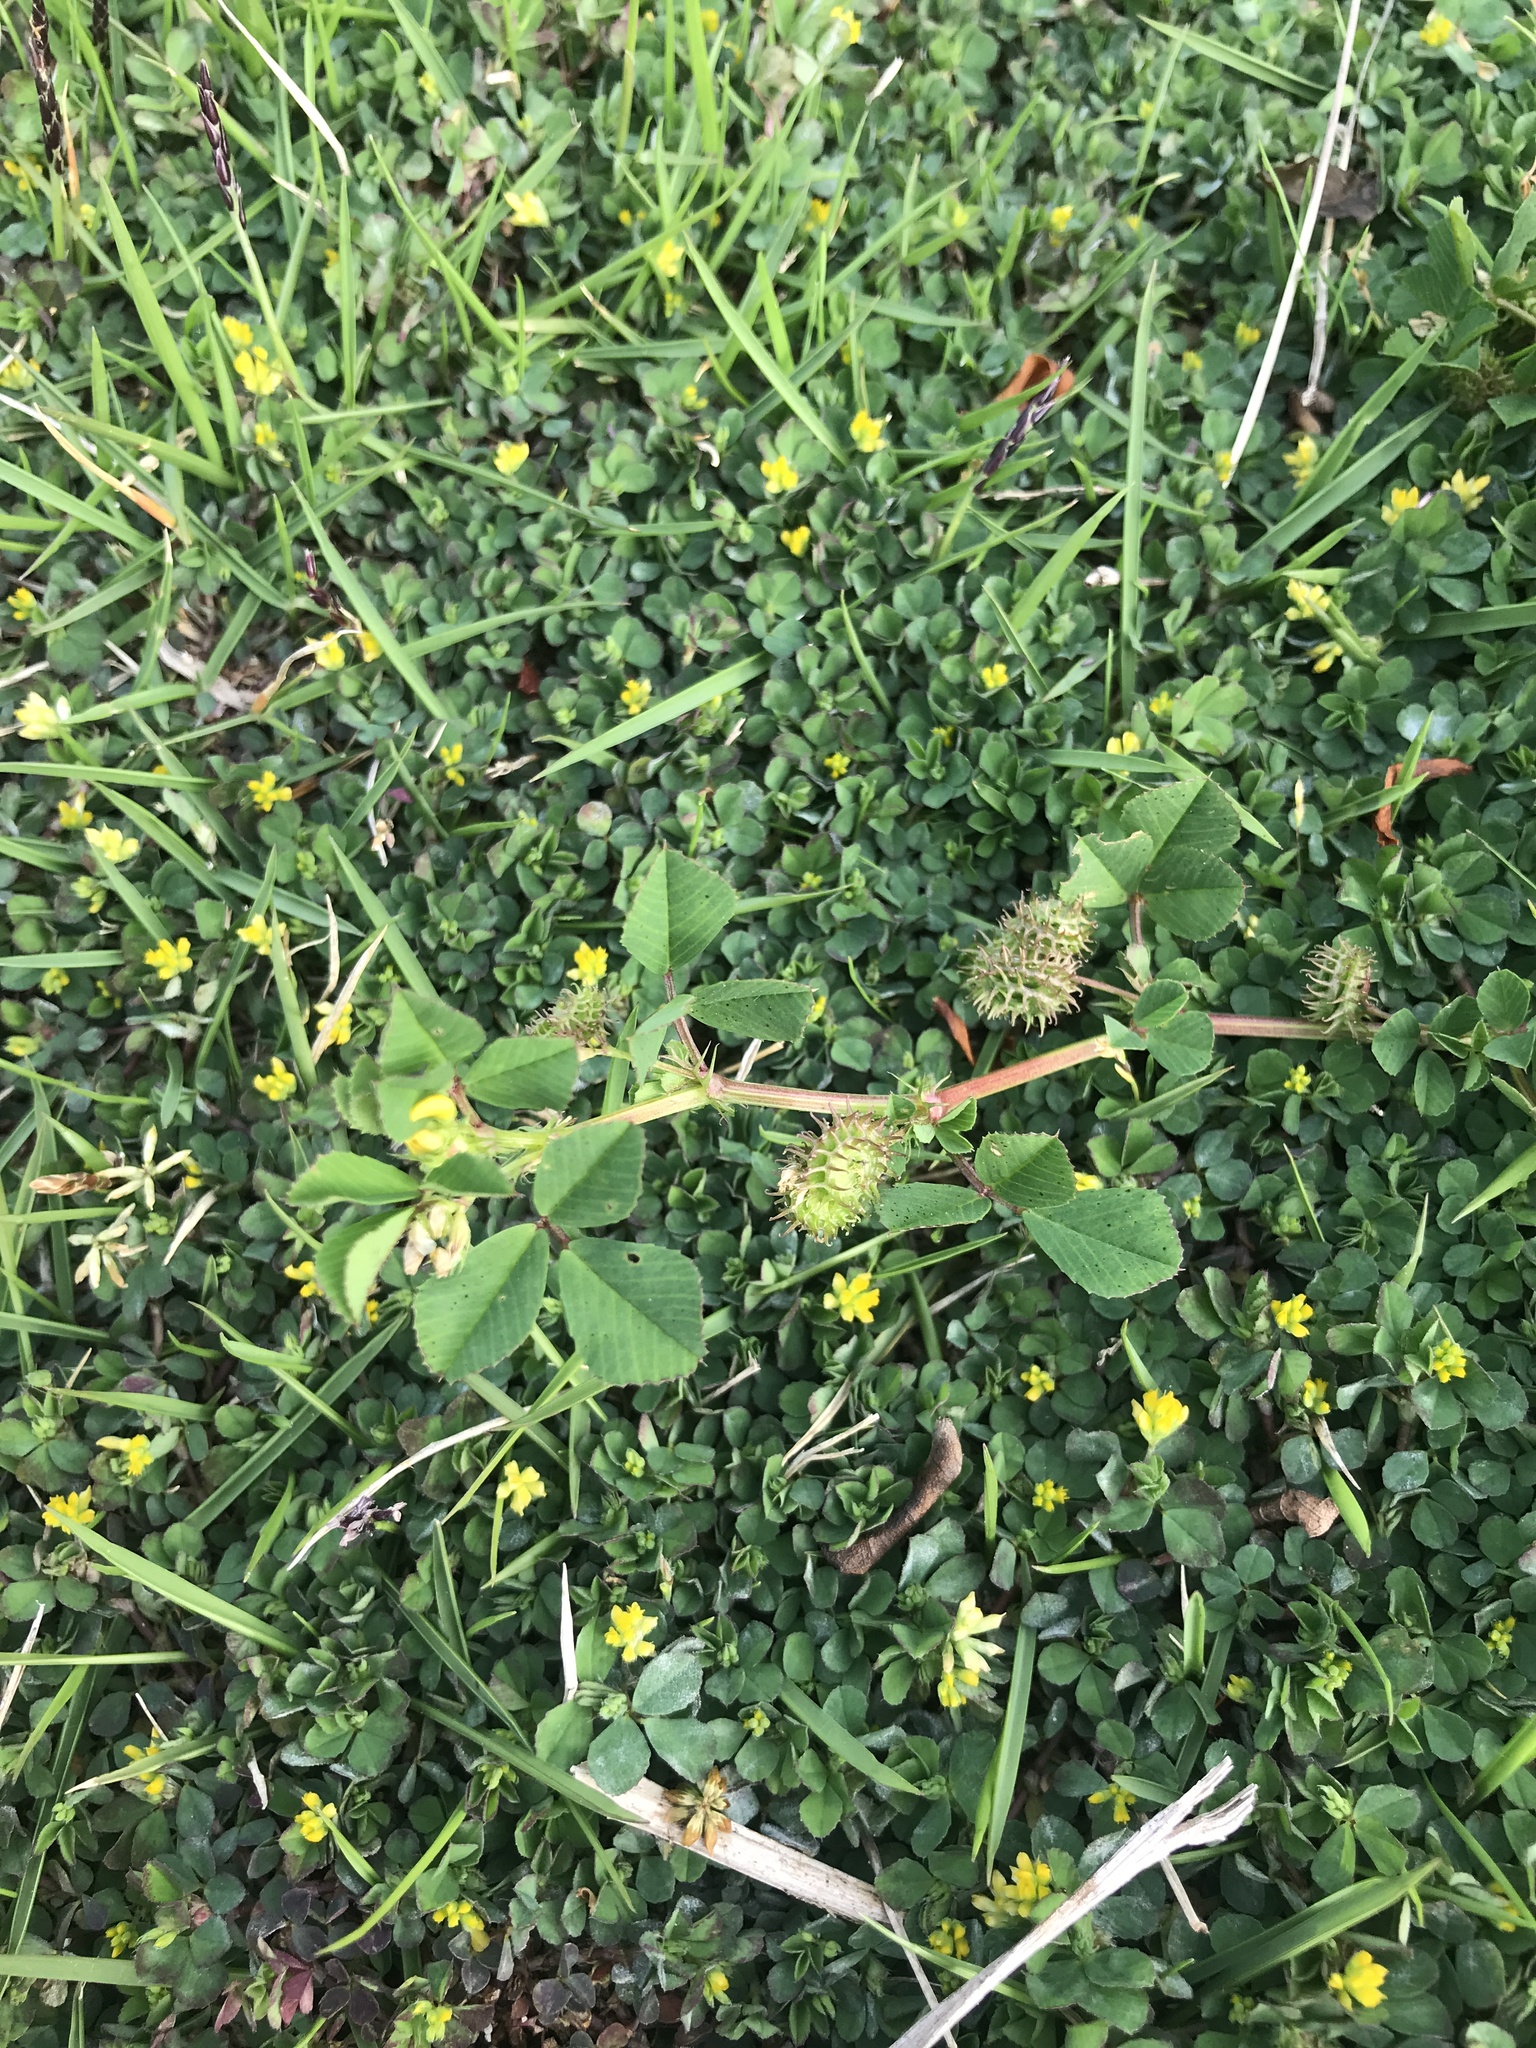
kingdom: Plantae
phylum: Tracheophyta
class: Magnoliopsida
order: Fabales
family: Fabaceae
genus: Medicago
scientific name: Medicago polymorpha
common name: Burclover
